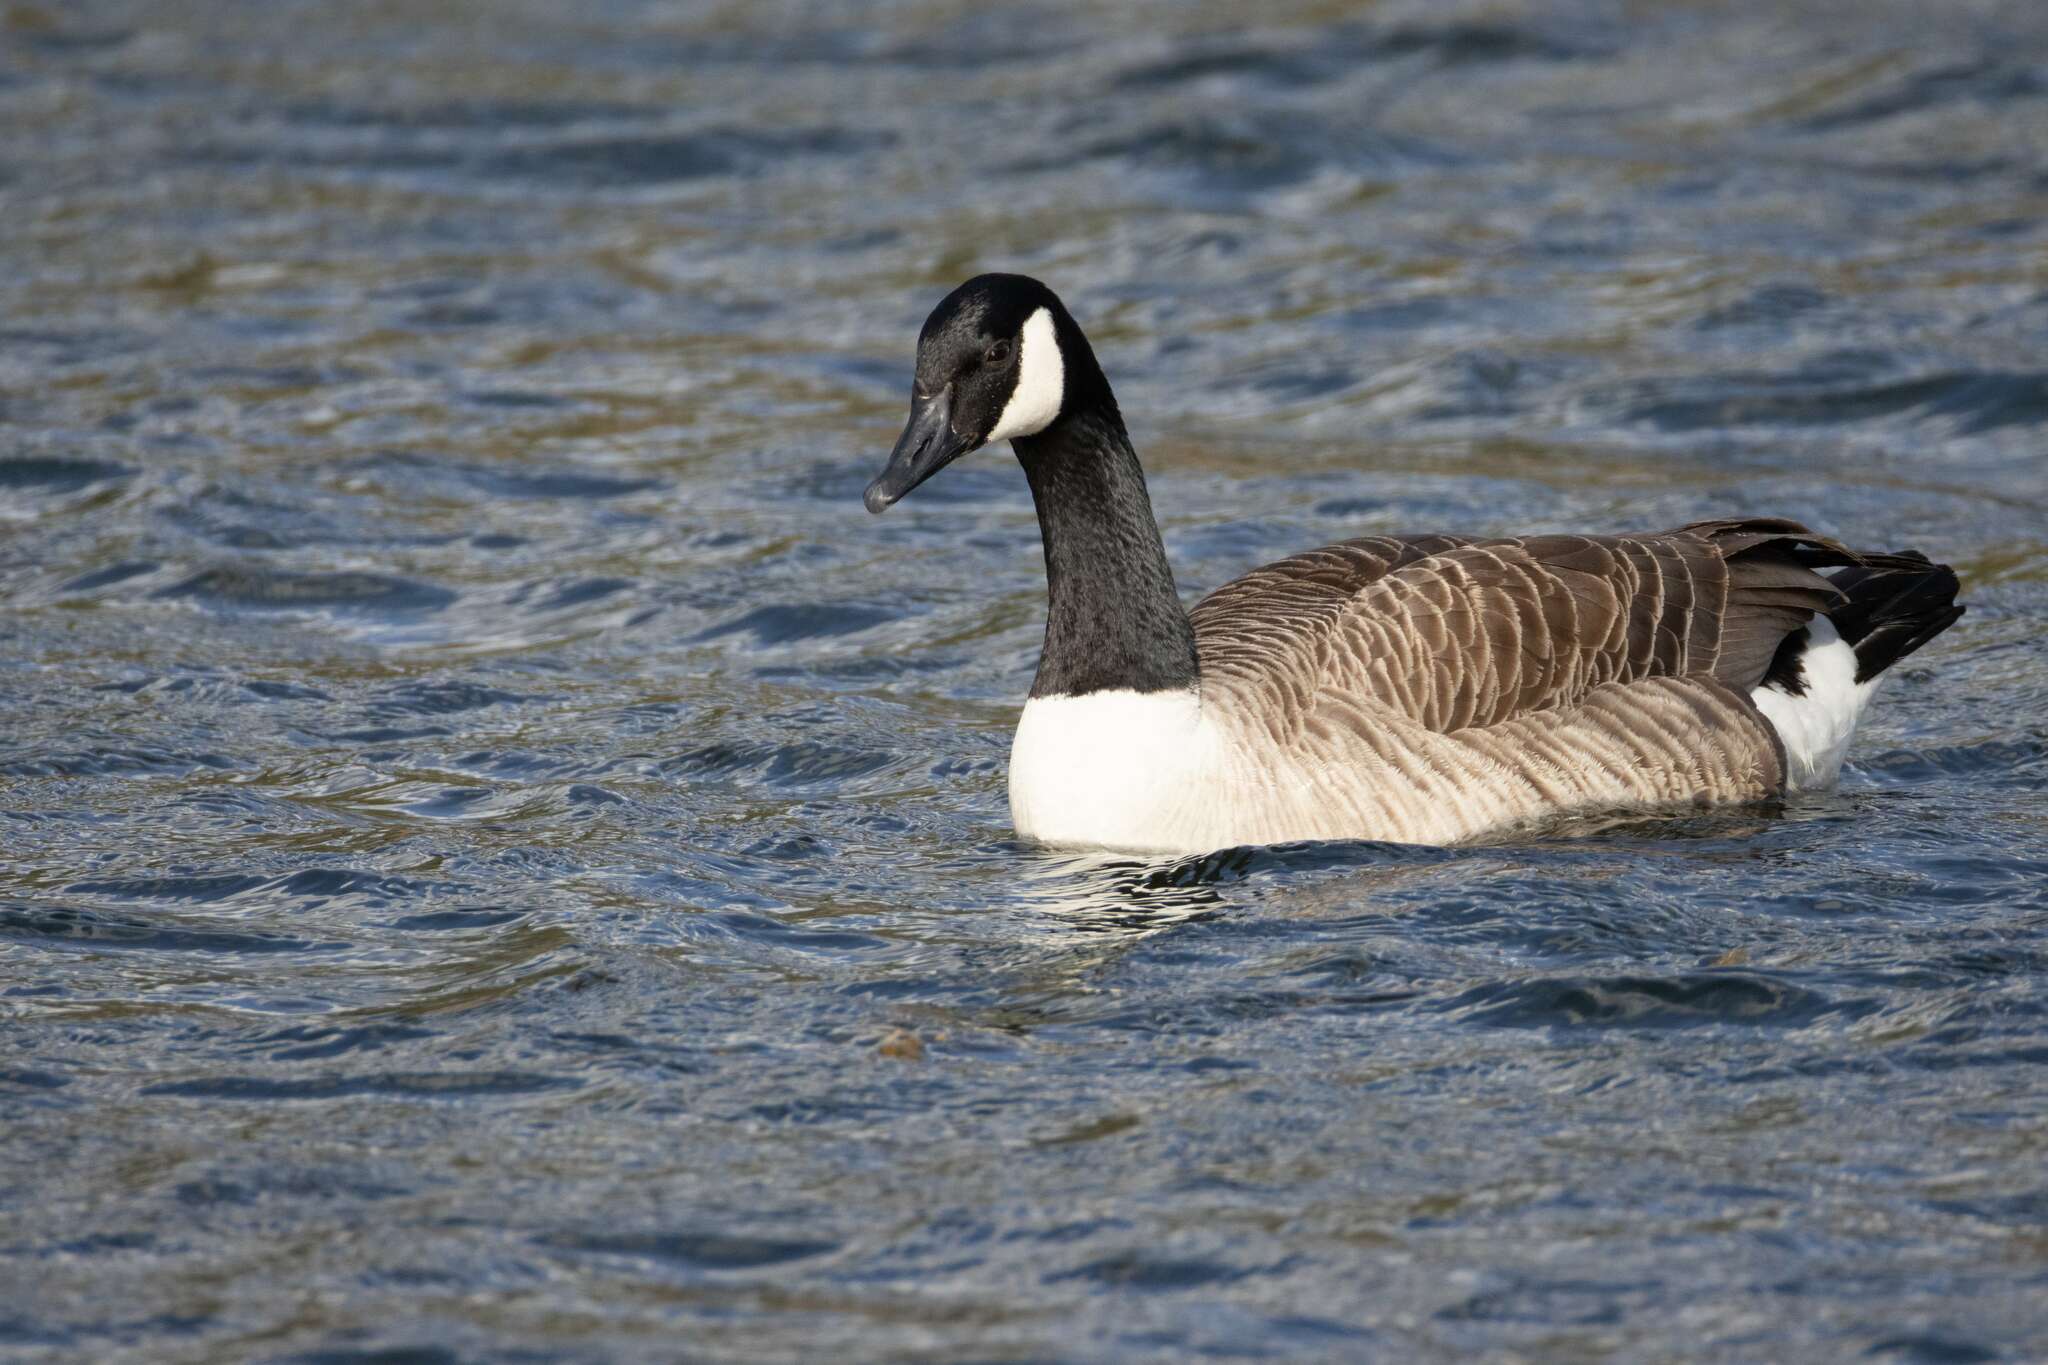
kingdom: Animalia
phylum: Chordata
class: Aves
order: Anseriformes
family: Anatidae
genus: Branta
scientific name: Branta canadensis
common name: Canada goose
